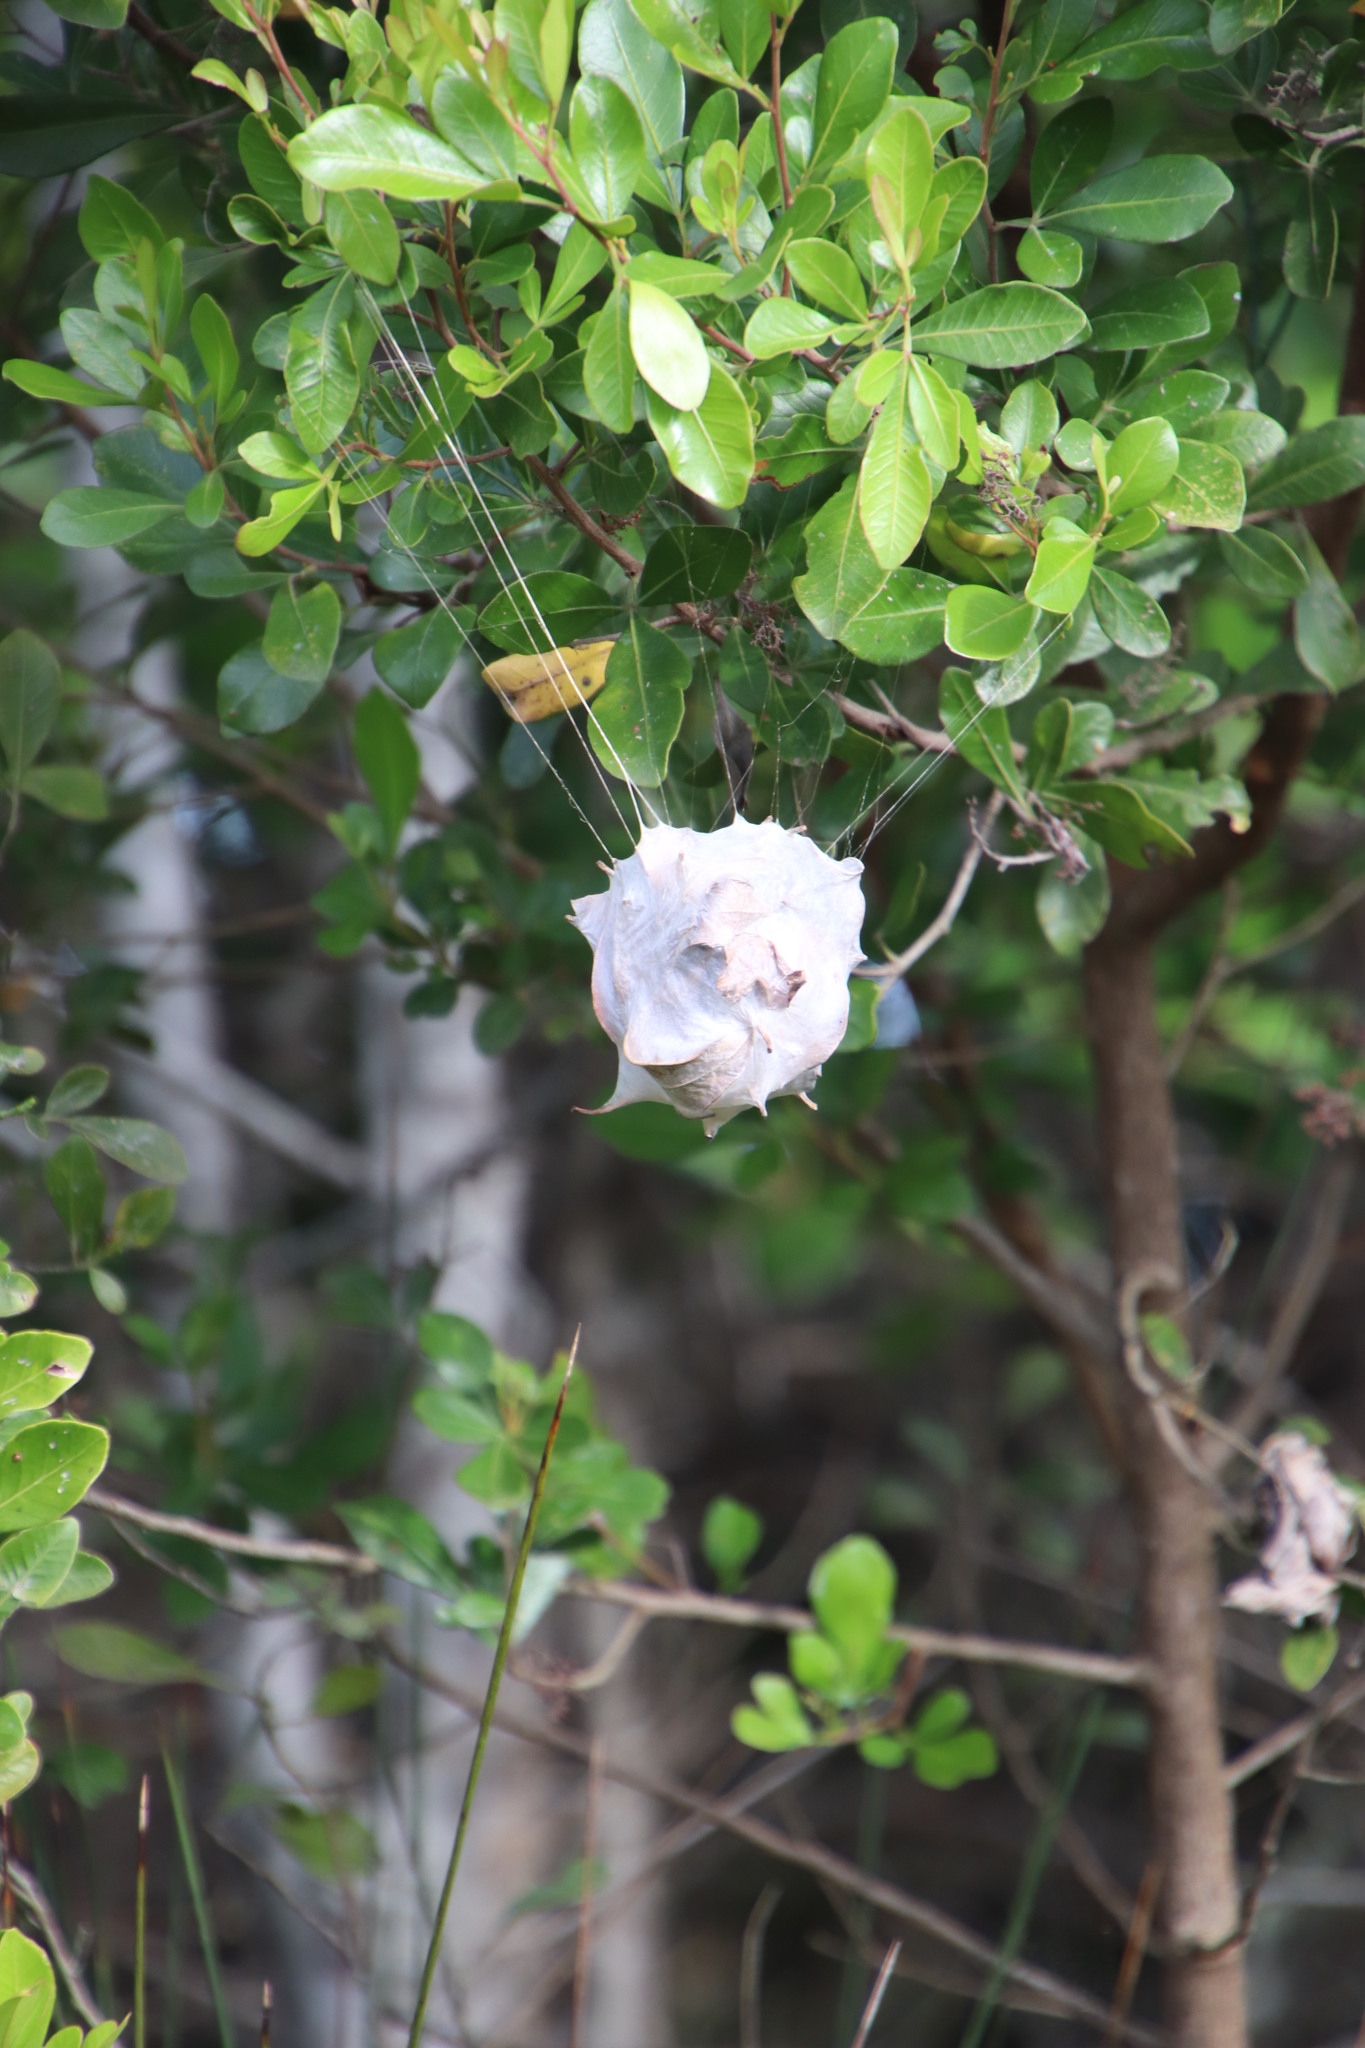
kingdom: Animalia
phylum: Arthropoda
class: Arachnida
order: Araneae
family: Sparassidae
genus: Palystes
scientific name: Palystes superciliosus
